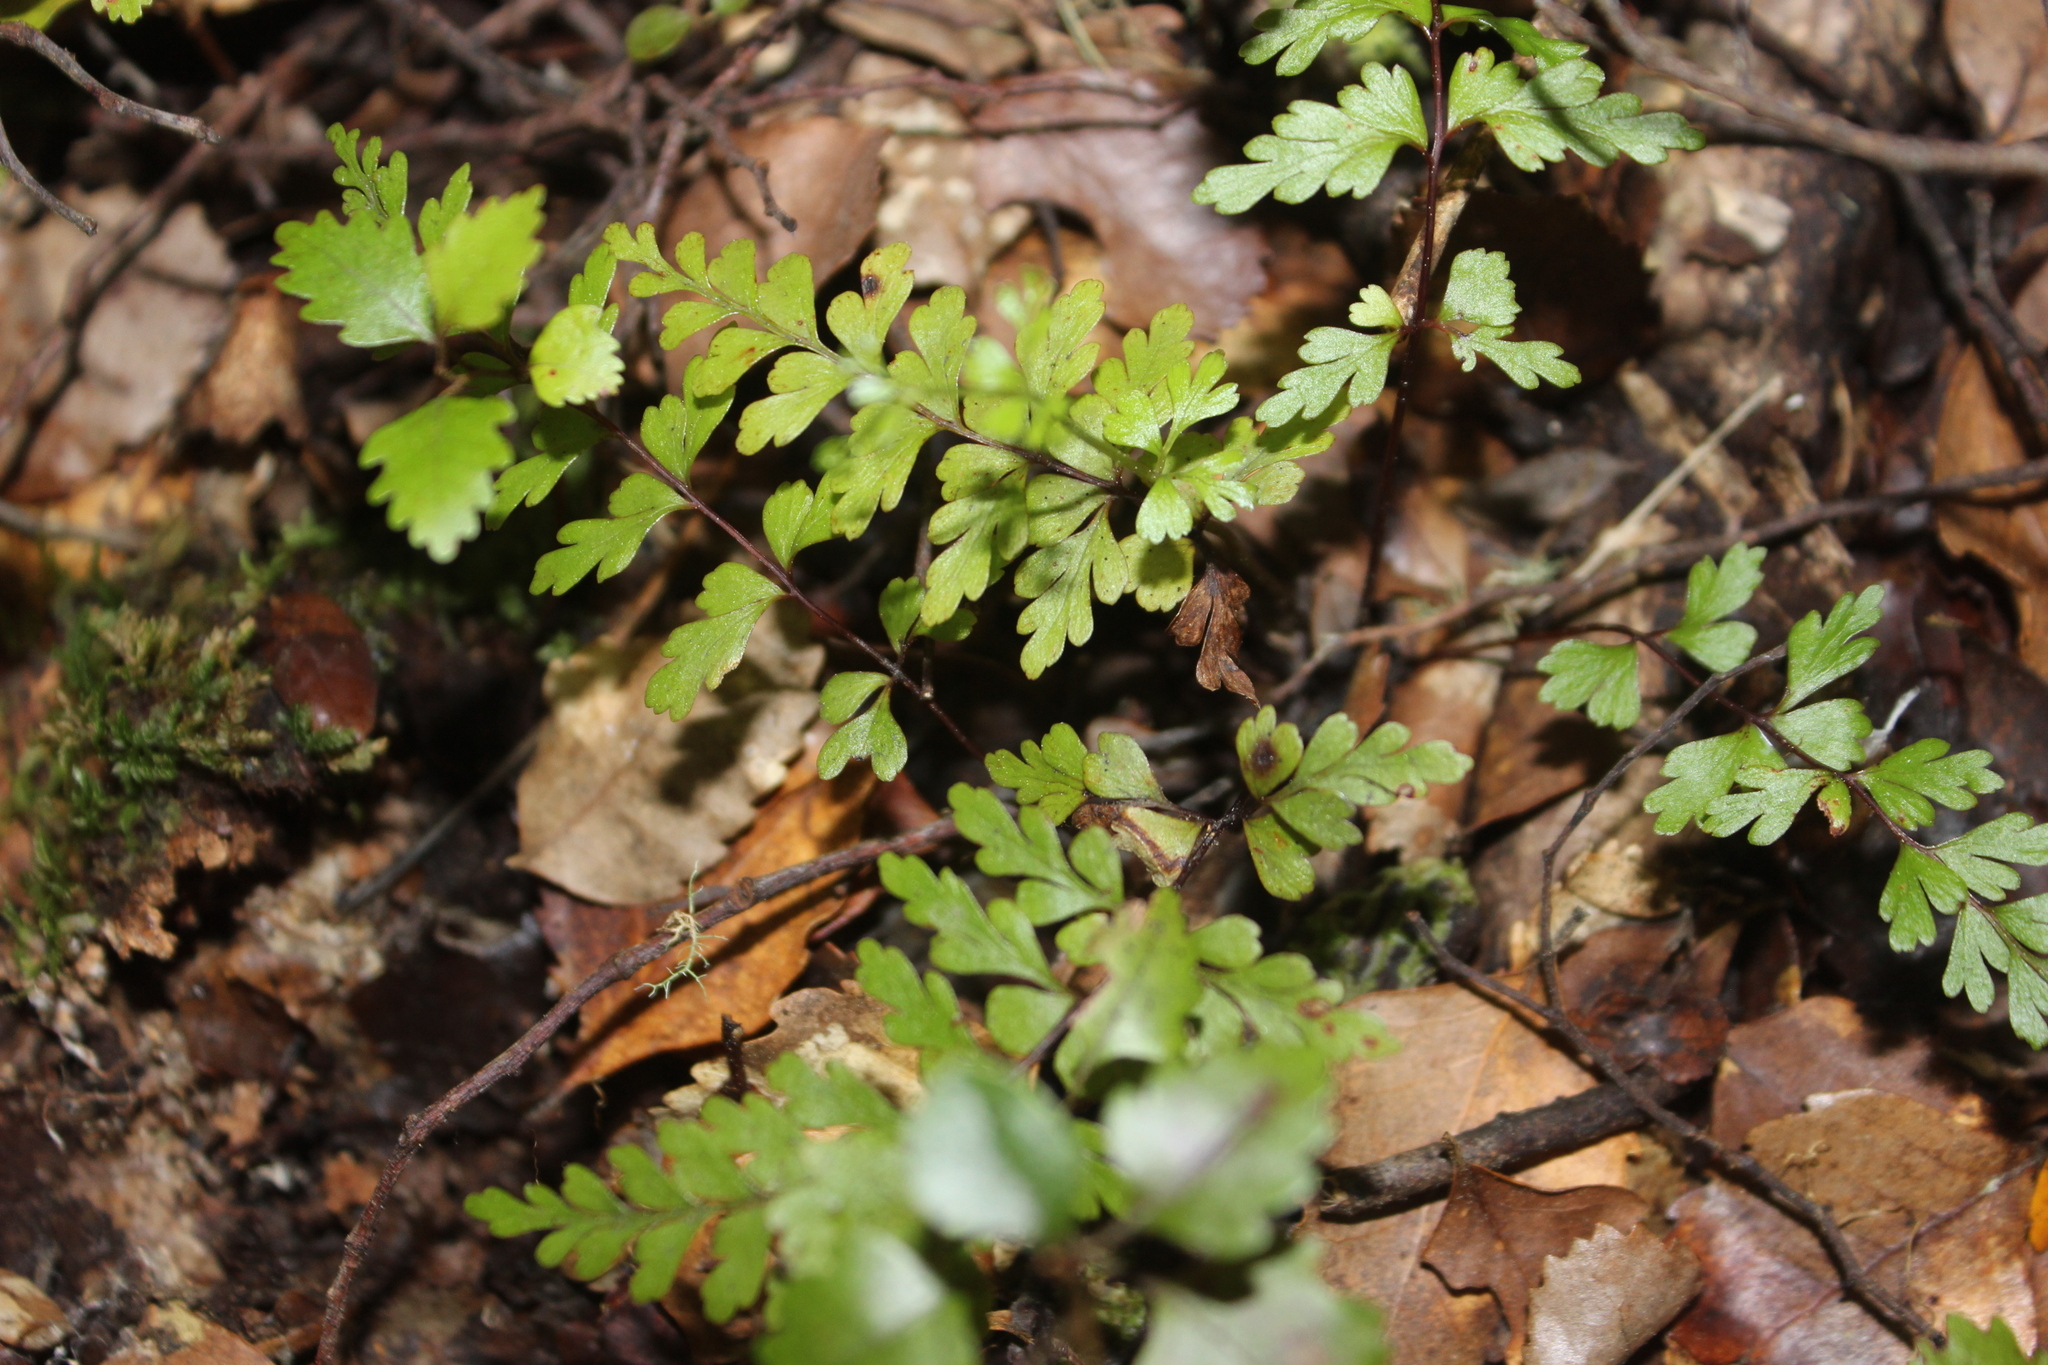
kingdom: Plantae
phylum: Tracheophyta
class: Polypodiopsida
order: Polypodiales
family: Lindsaeaceae
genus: Lindsaea
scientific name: Lindsaea trichomanoides
